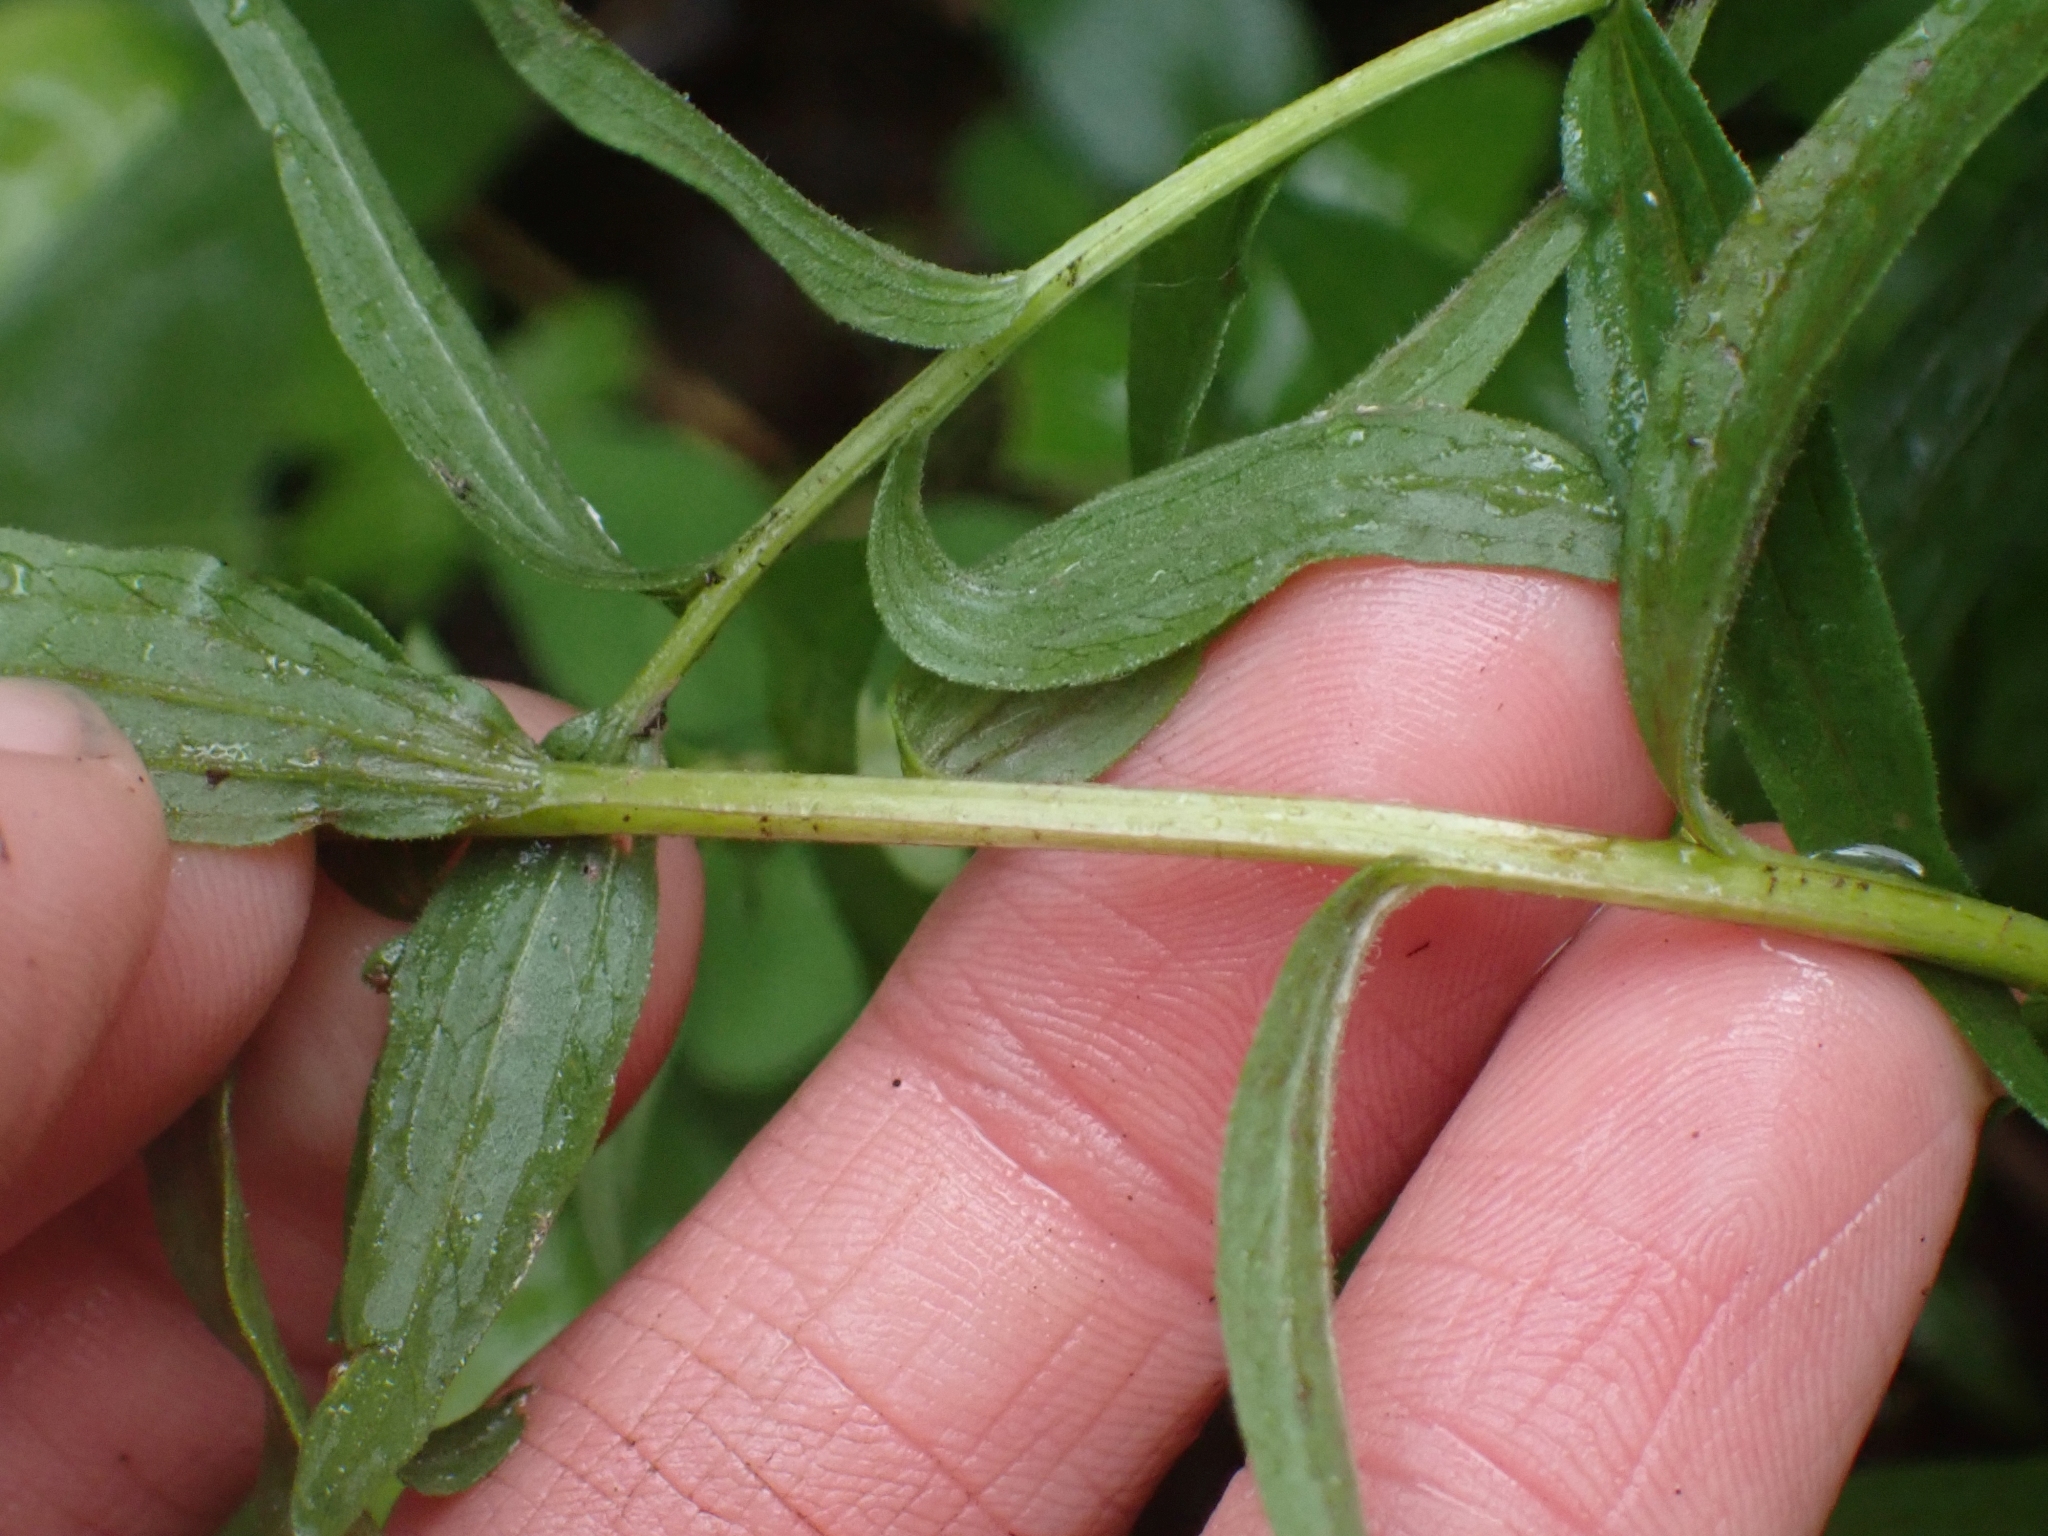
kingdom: Plantae
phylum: Tracheophyta
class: Magnoliopsida
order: Lamiales
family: Orobanchaceae
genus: Castilleja
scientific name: Castilleja miniata
